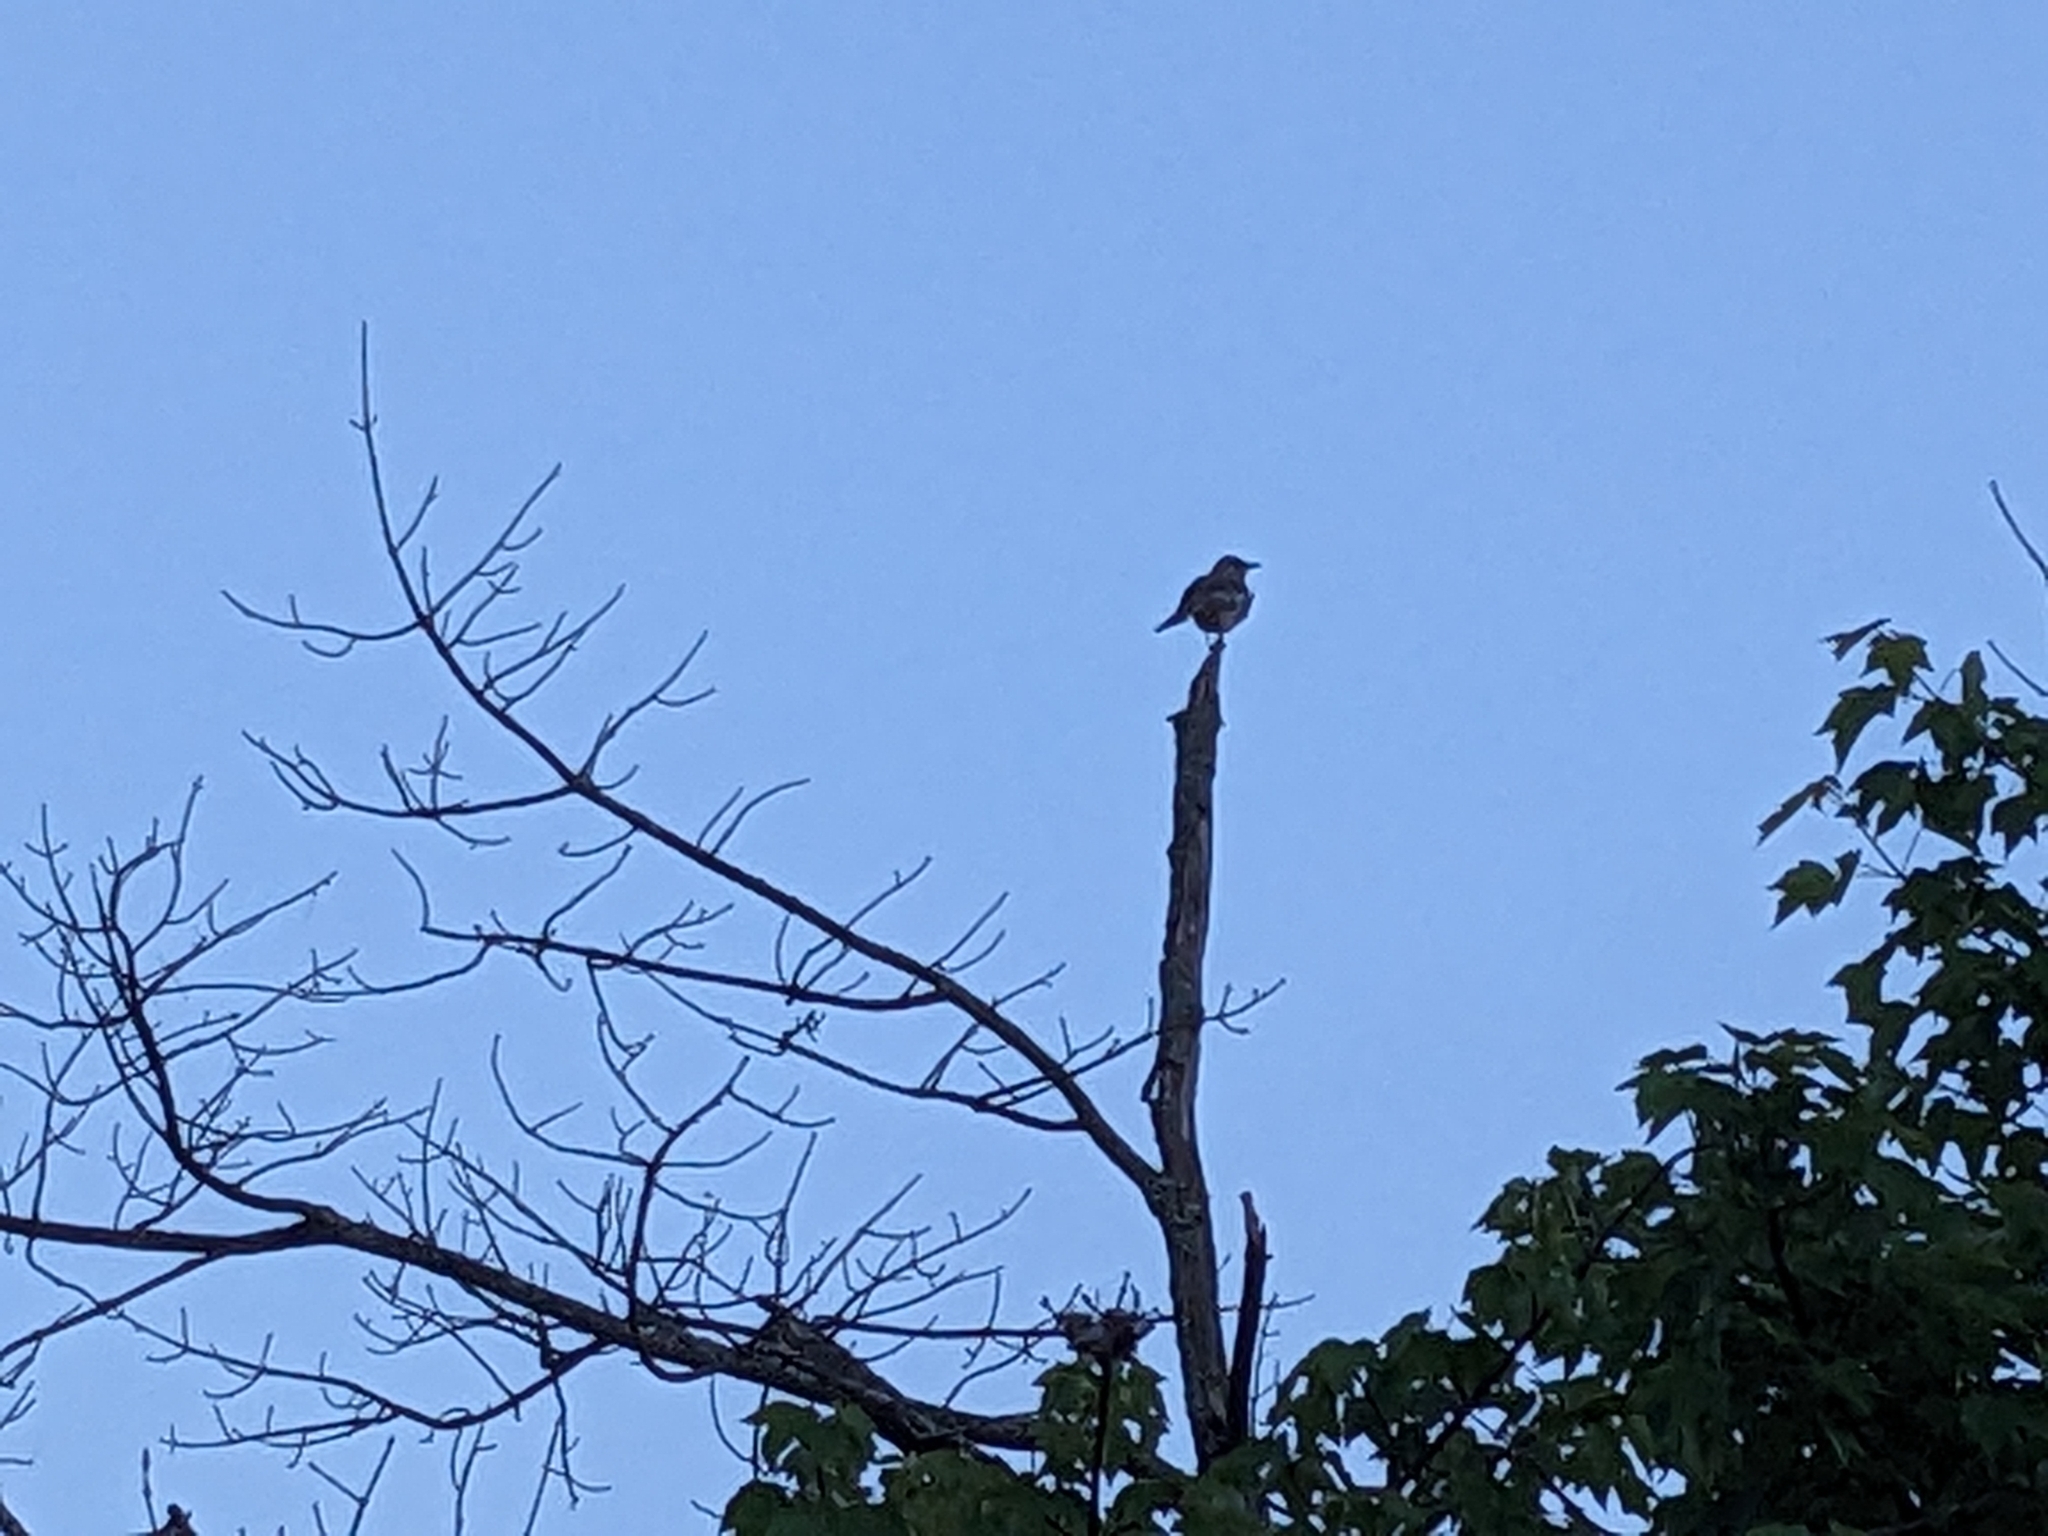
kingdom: Animalia
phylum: Chordata
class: Aves
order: Passeriformes
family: Mimidae
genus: Mimus
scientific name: Mimus polyglottos
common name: Northern mockingbird
